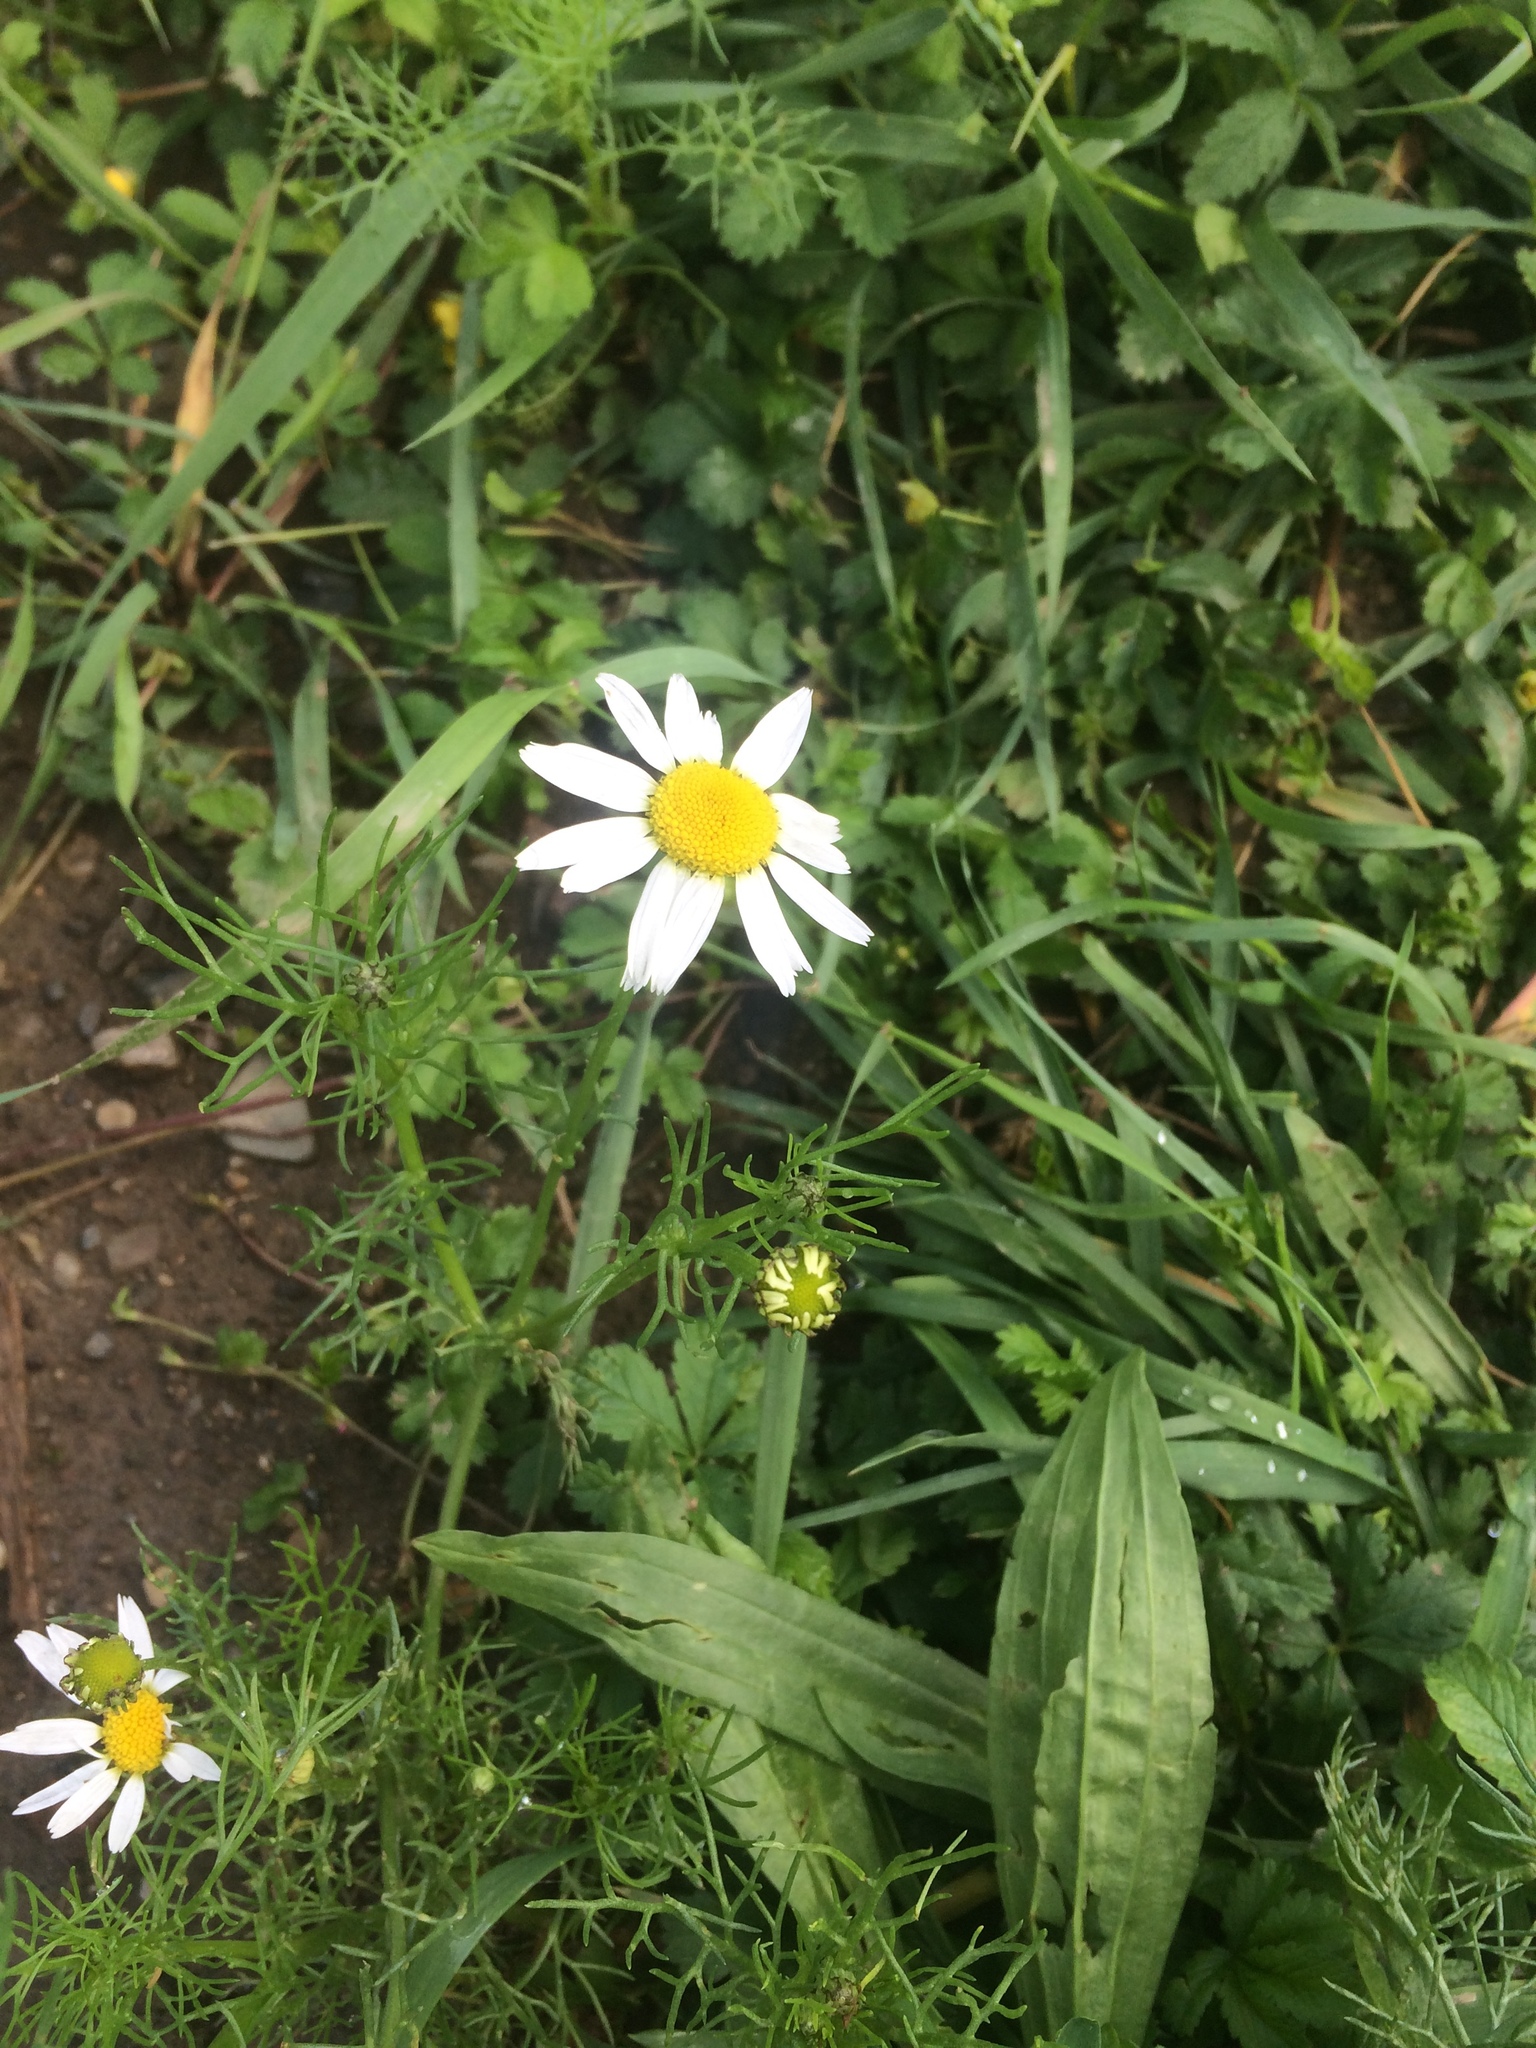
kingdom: Plantae
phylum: Tracheophyta
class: Magnoliopsida
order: Asterales
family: Asteraceae
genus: Tripleurospermum
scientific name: Tripleurospermum inodorum
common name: Scentless mayweed
